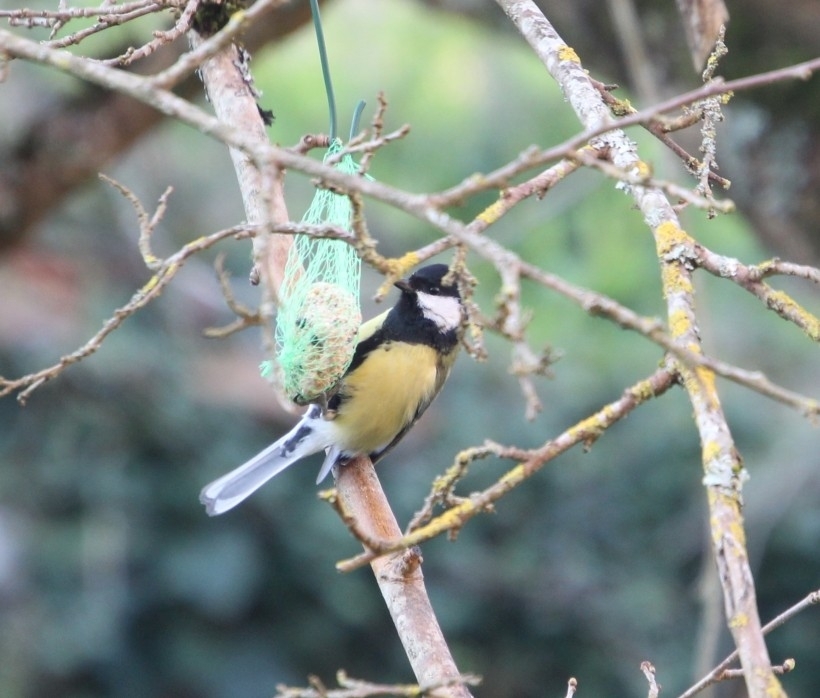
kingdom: Animalia
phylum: Chordata
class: Aves
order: Passeriformes
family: Paridae
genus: Parus
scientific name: Parus major
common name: Great tit
